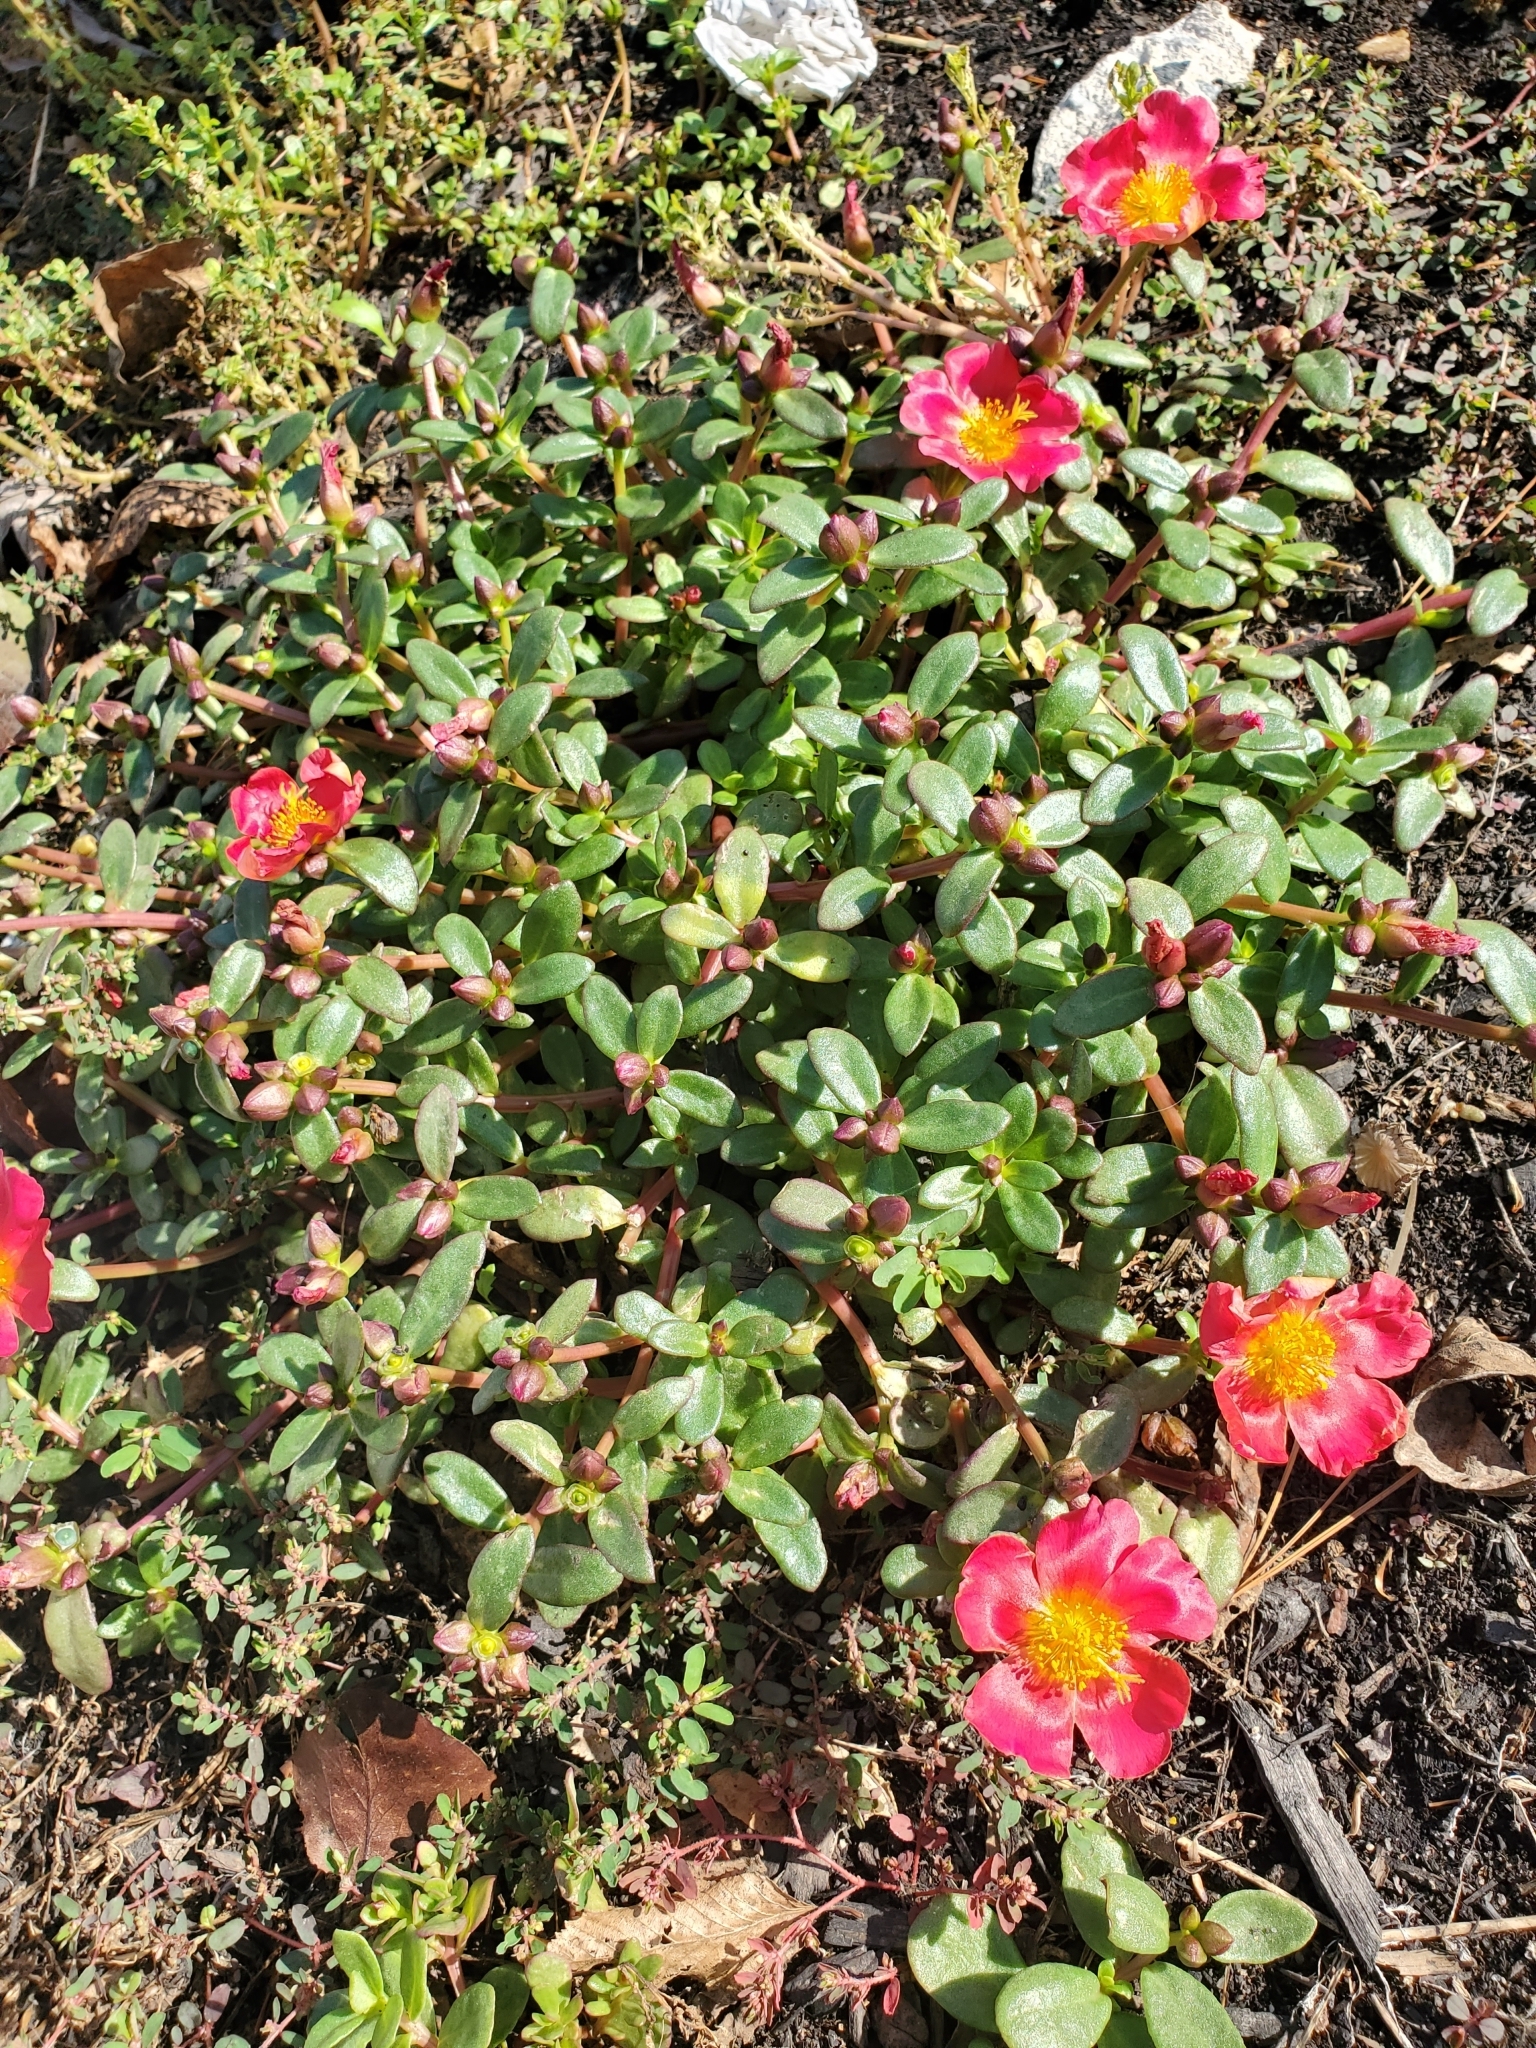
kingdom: Plantae
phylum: Tracheophyta
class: Magnoliopsida
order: Caryophyllales
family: Portulacaceae
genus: Portulaca
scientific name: Portulaca umbraticola
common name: Wingpod purslane
